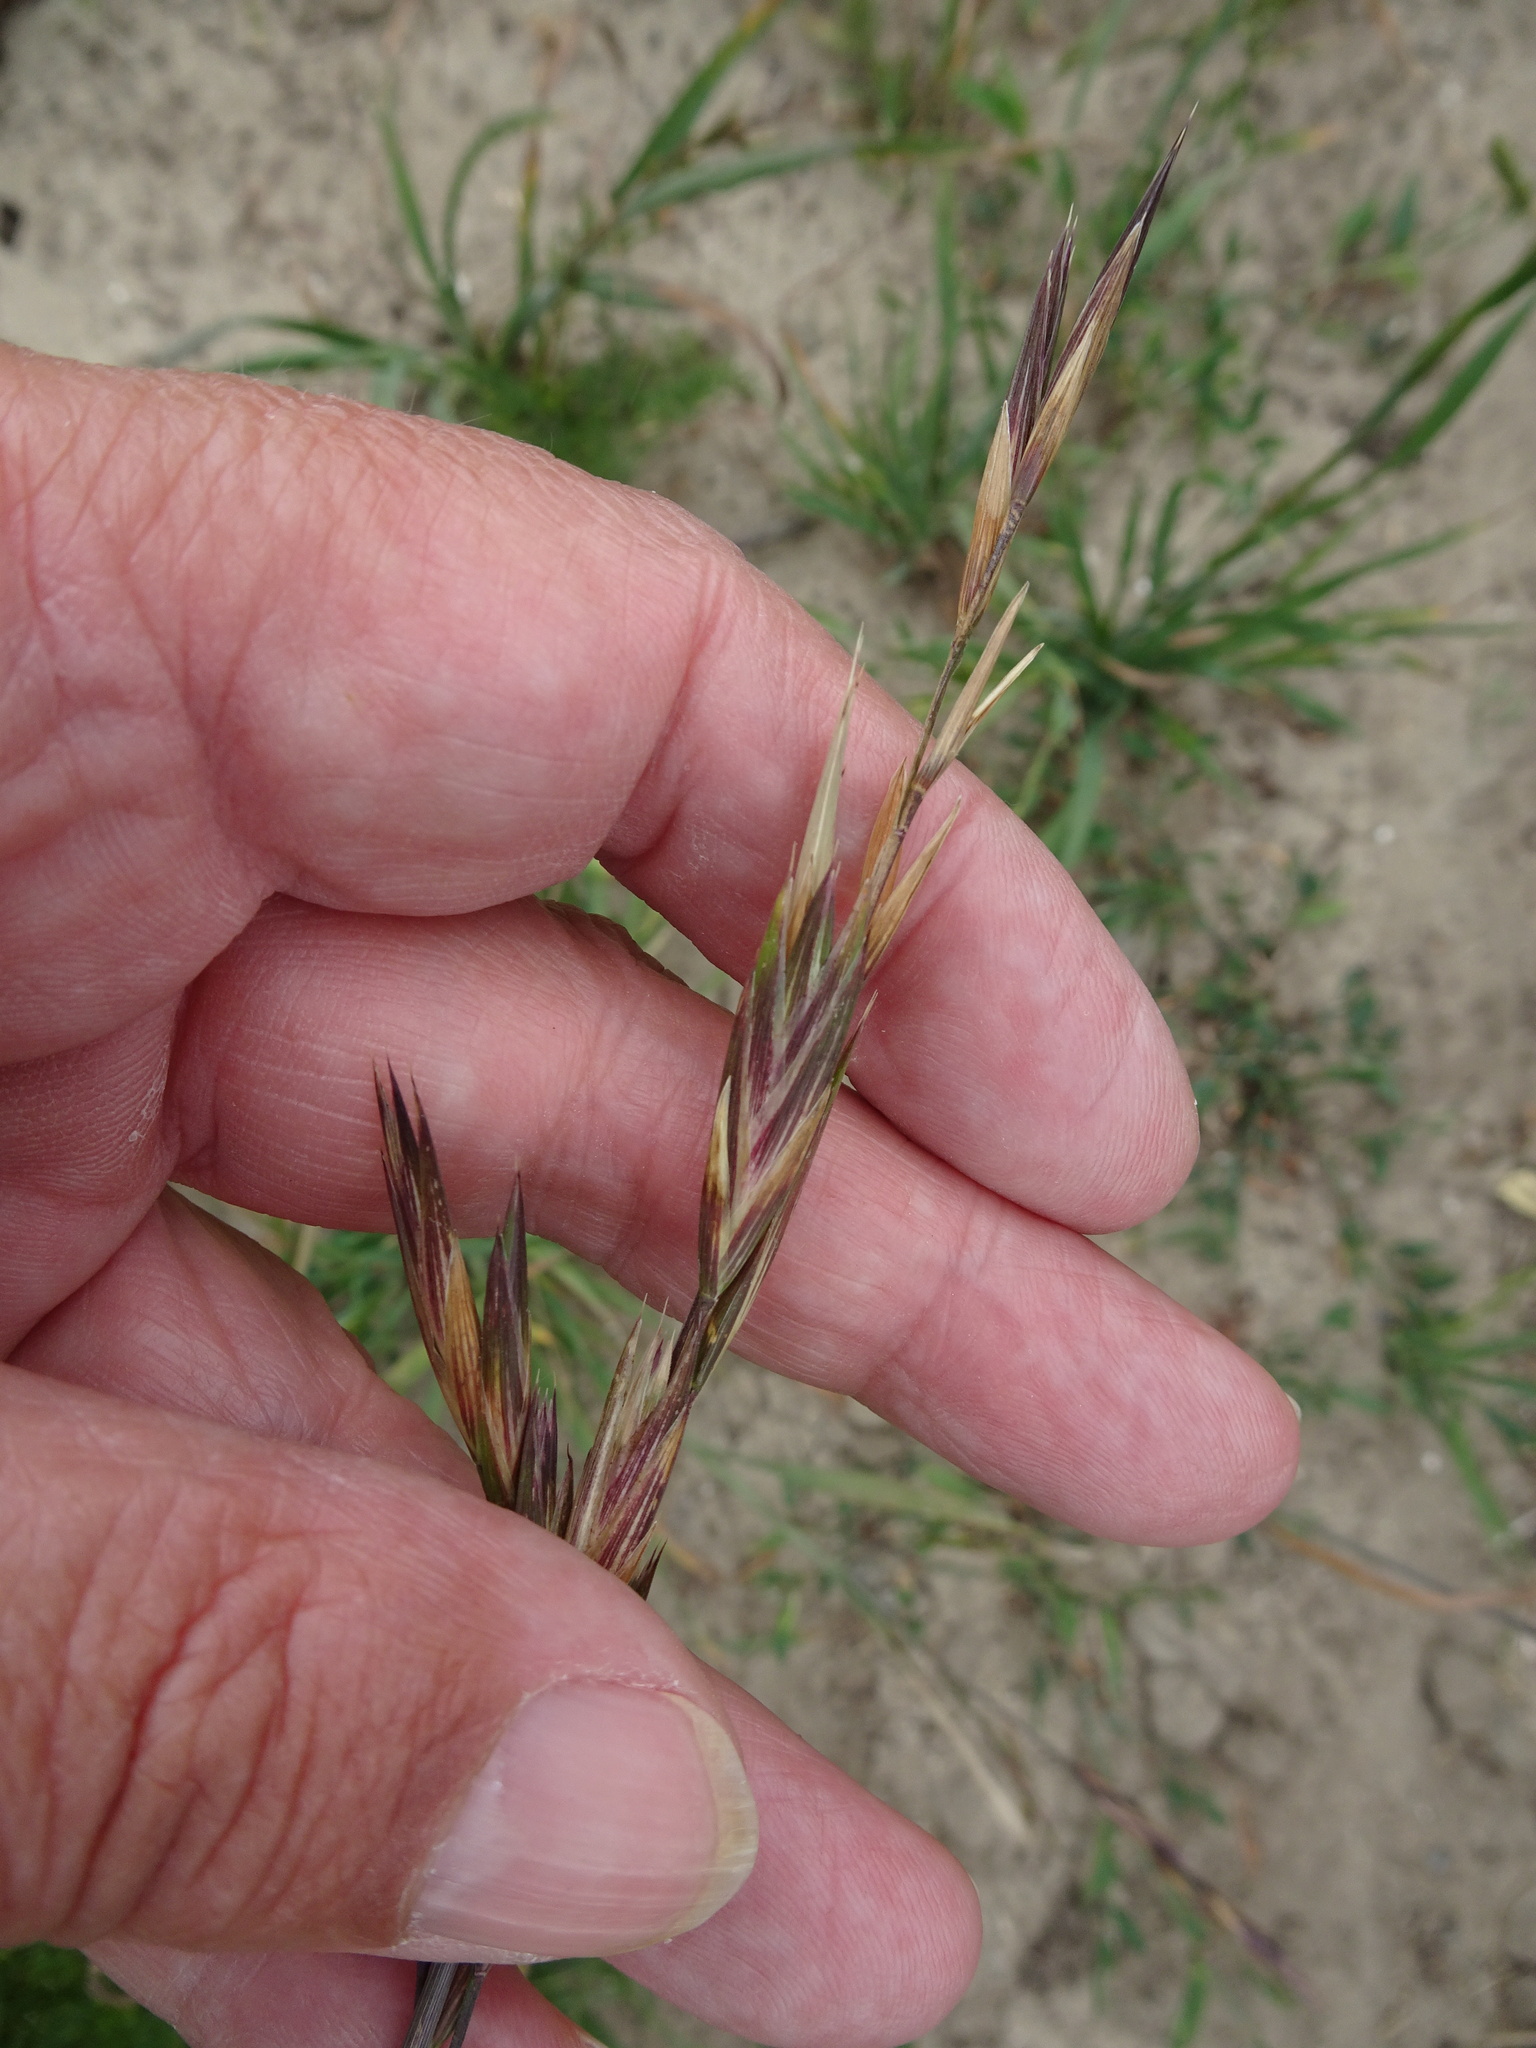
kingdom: Plantae
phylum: Tracheophyta
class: Liliopsida
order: Poales
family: Poaceae
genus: Bromus
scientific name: Bromus catharticus
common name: Rescuegrass
